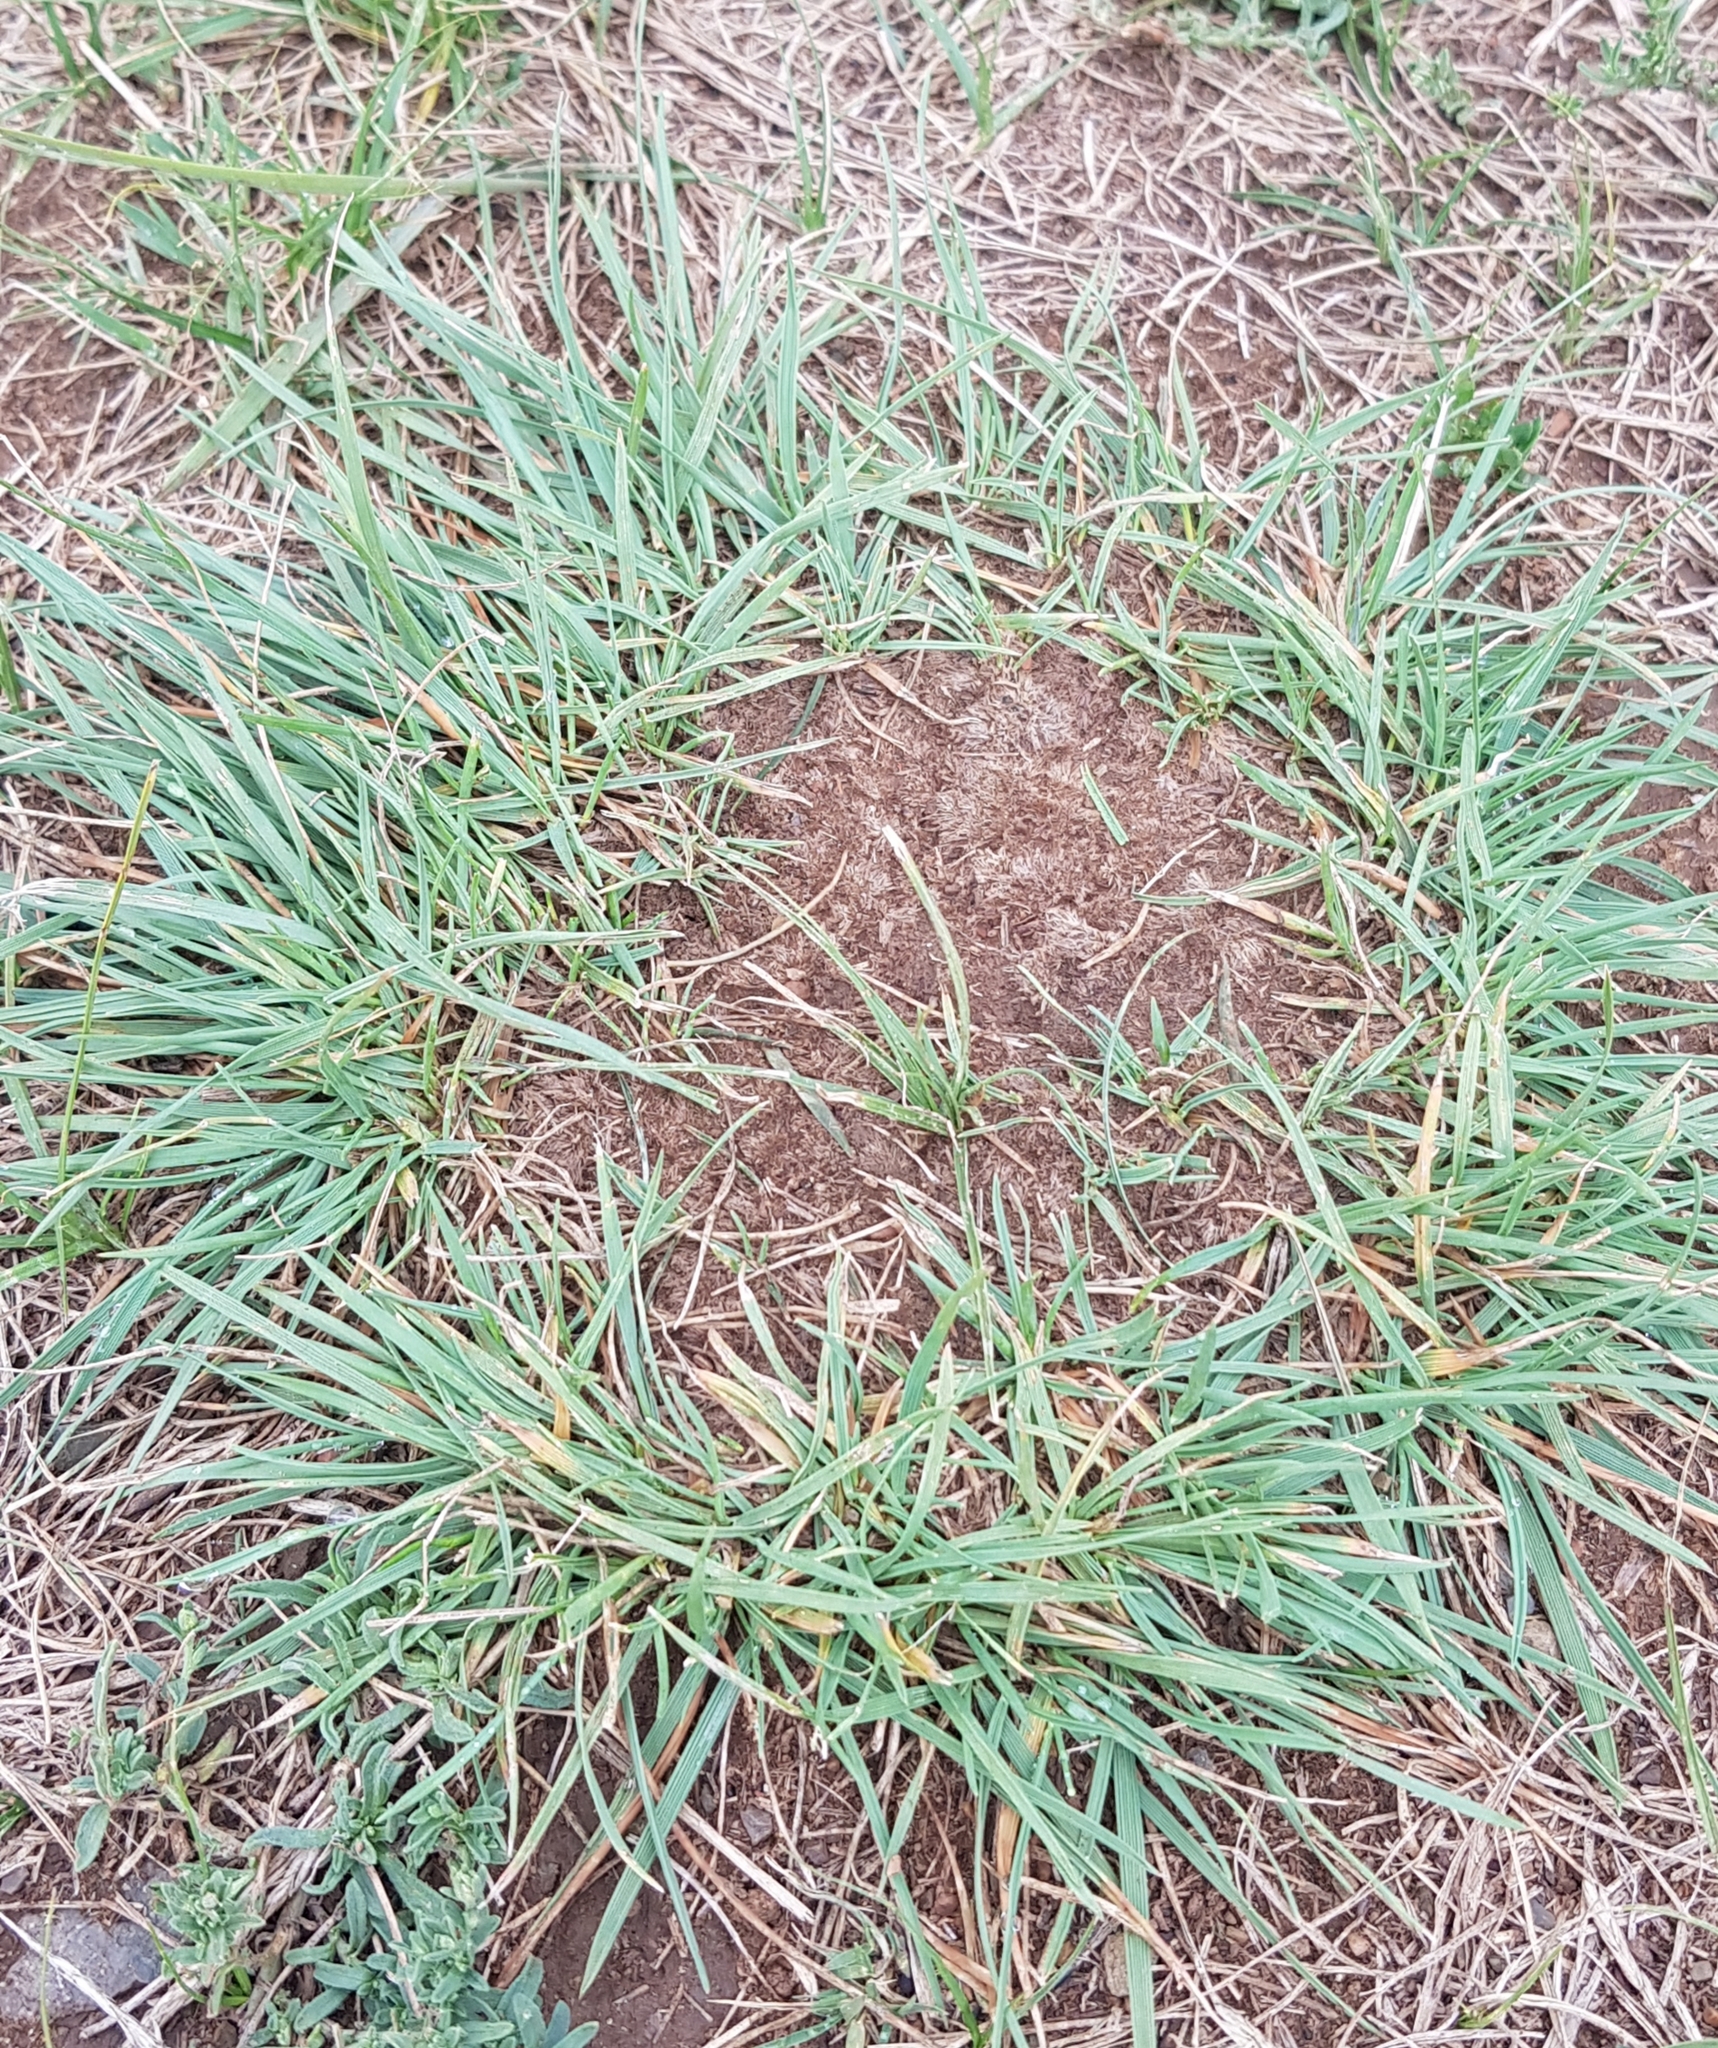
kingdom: Plantae
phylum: Tracheophyta
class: Liliopsida
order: Poales
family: Poaceae
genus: Cleistogenes
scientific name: Cleistogenes squarrosa
